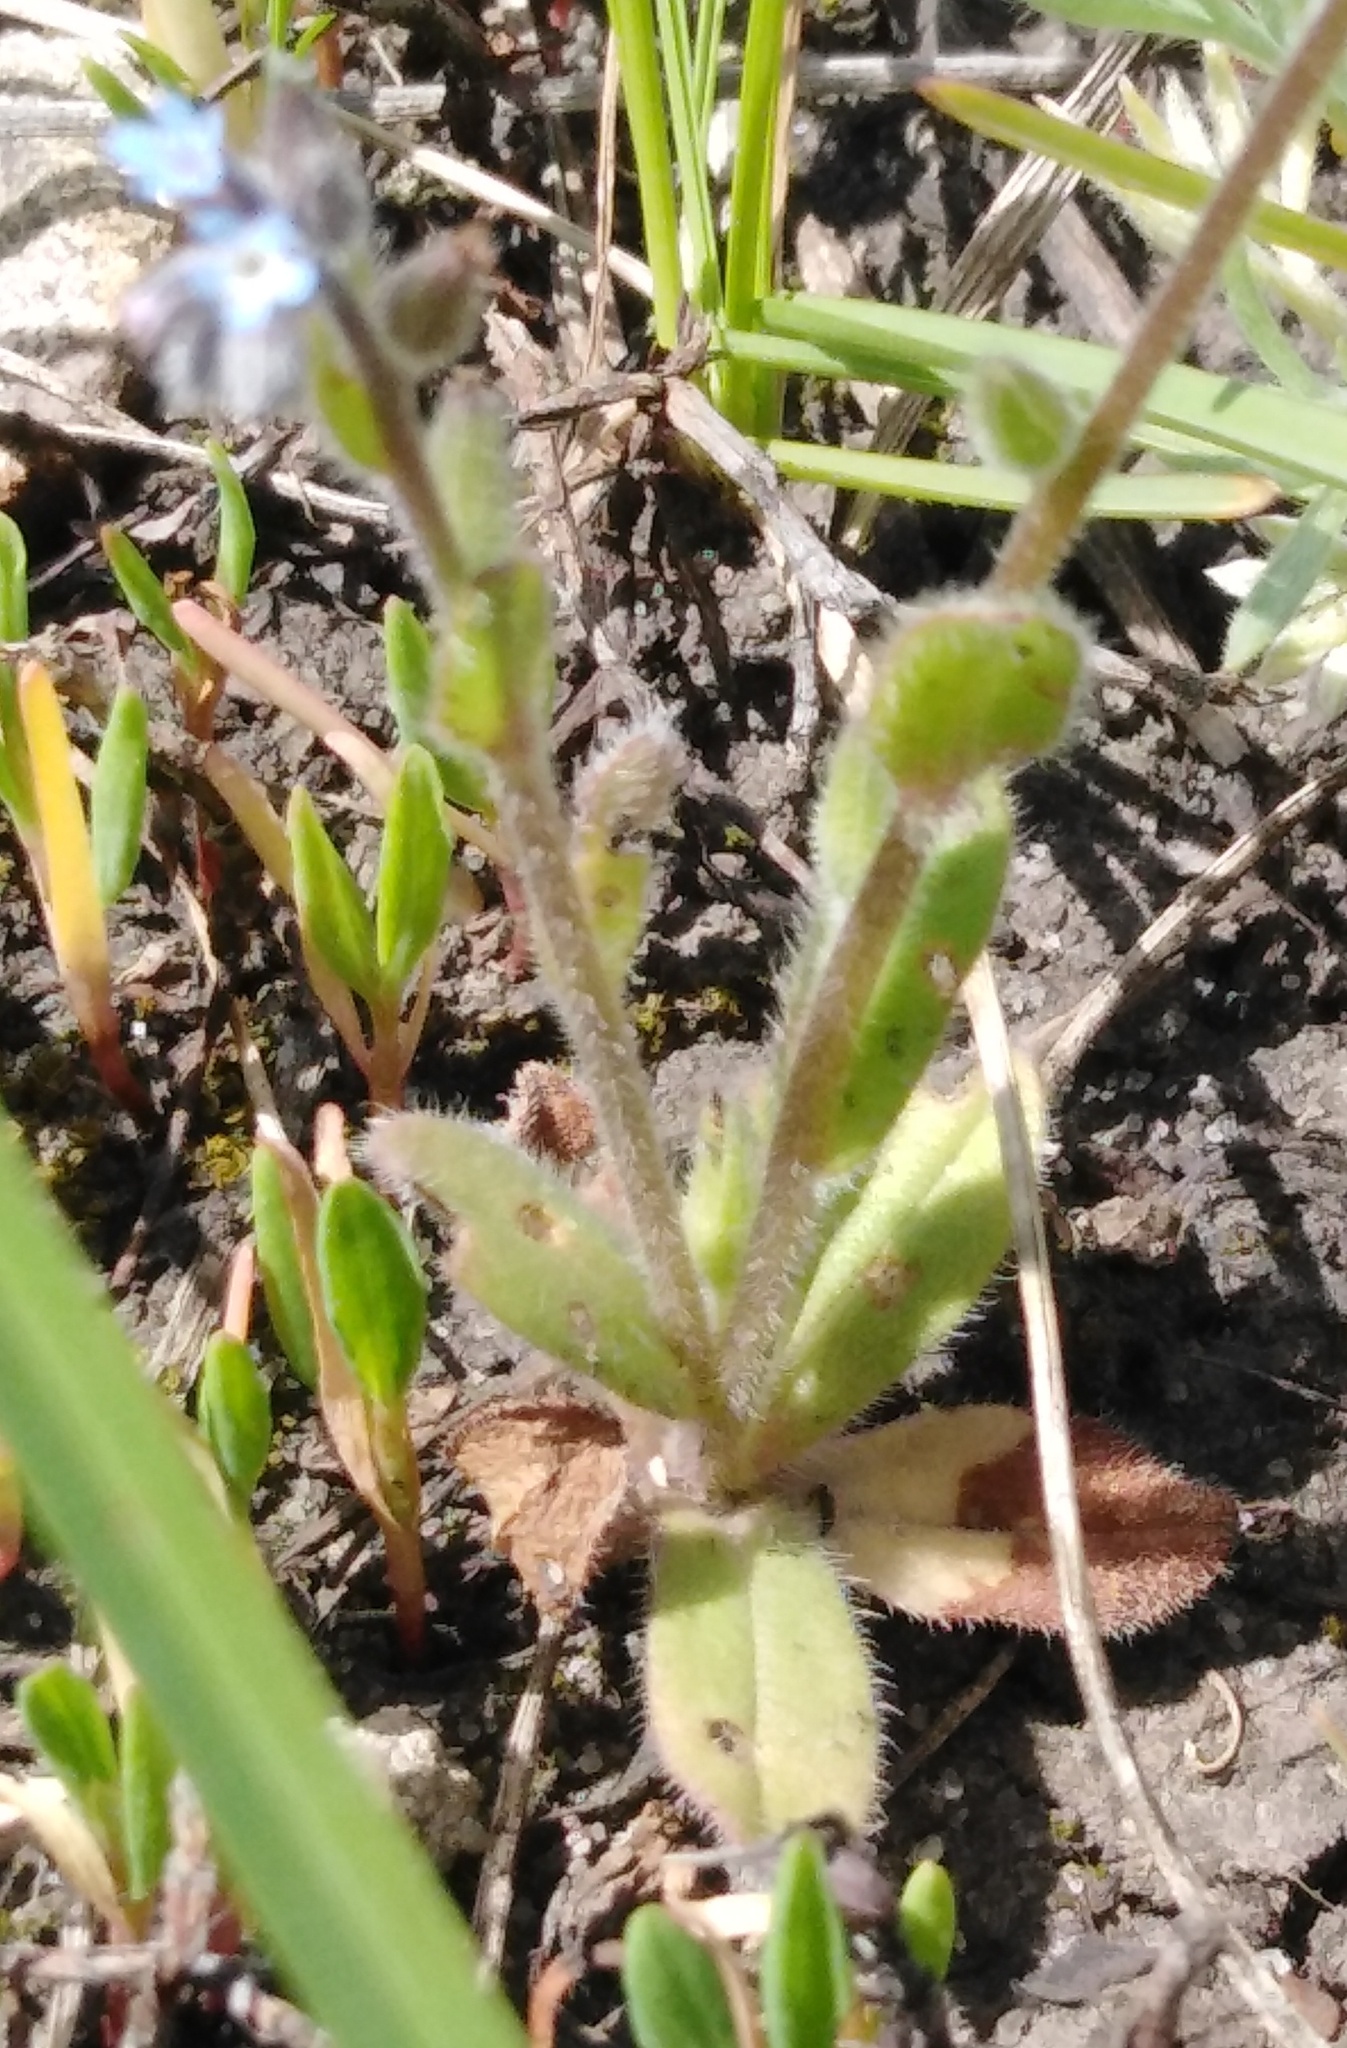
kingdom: Plantae
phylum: Tracheophyta
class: Magnoliopsida
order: Boraginales
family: Boraginaceae
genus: Myosotis
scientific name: Myosotis stricta
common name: Strict forget-me-not
